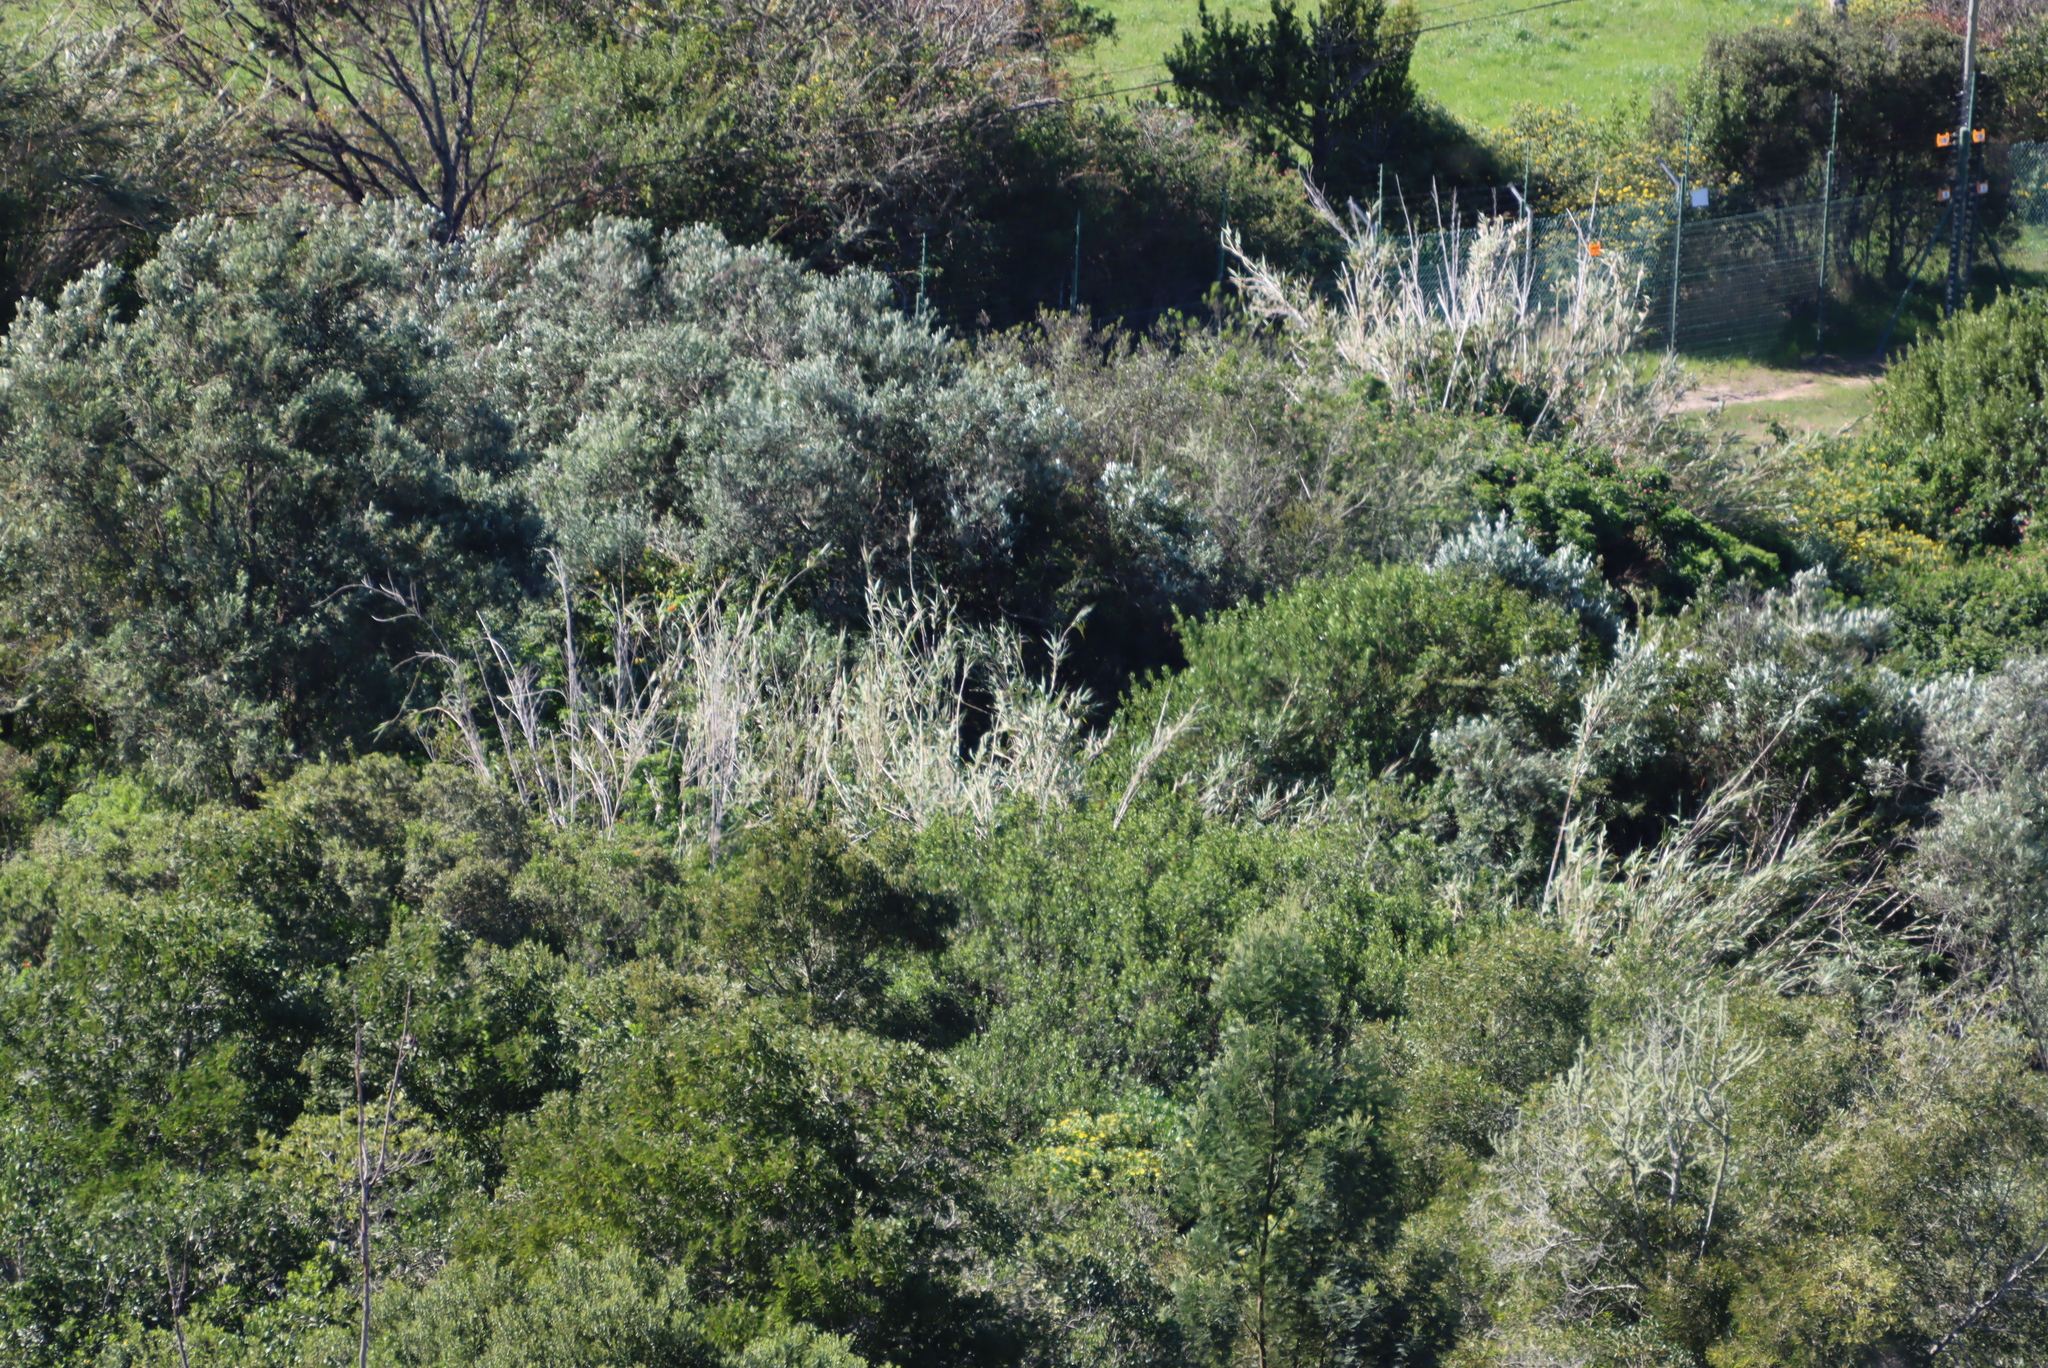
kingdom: Plantae
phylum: Tracheophyta
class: Liliopsida
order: Poales
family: Poaceae
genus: Phragmites
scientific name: Phragmites australis
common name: Common reed
